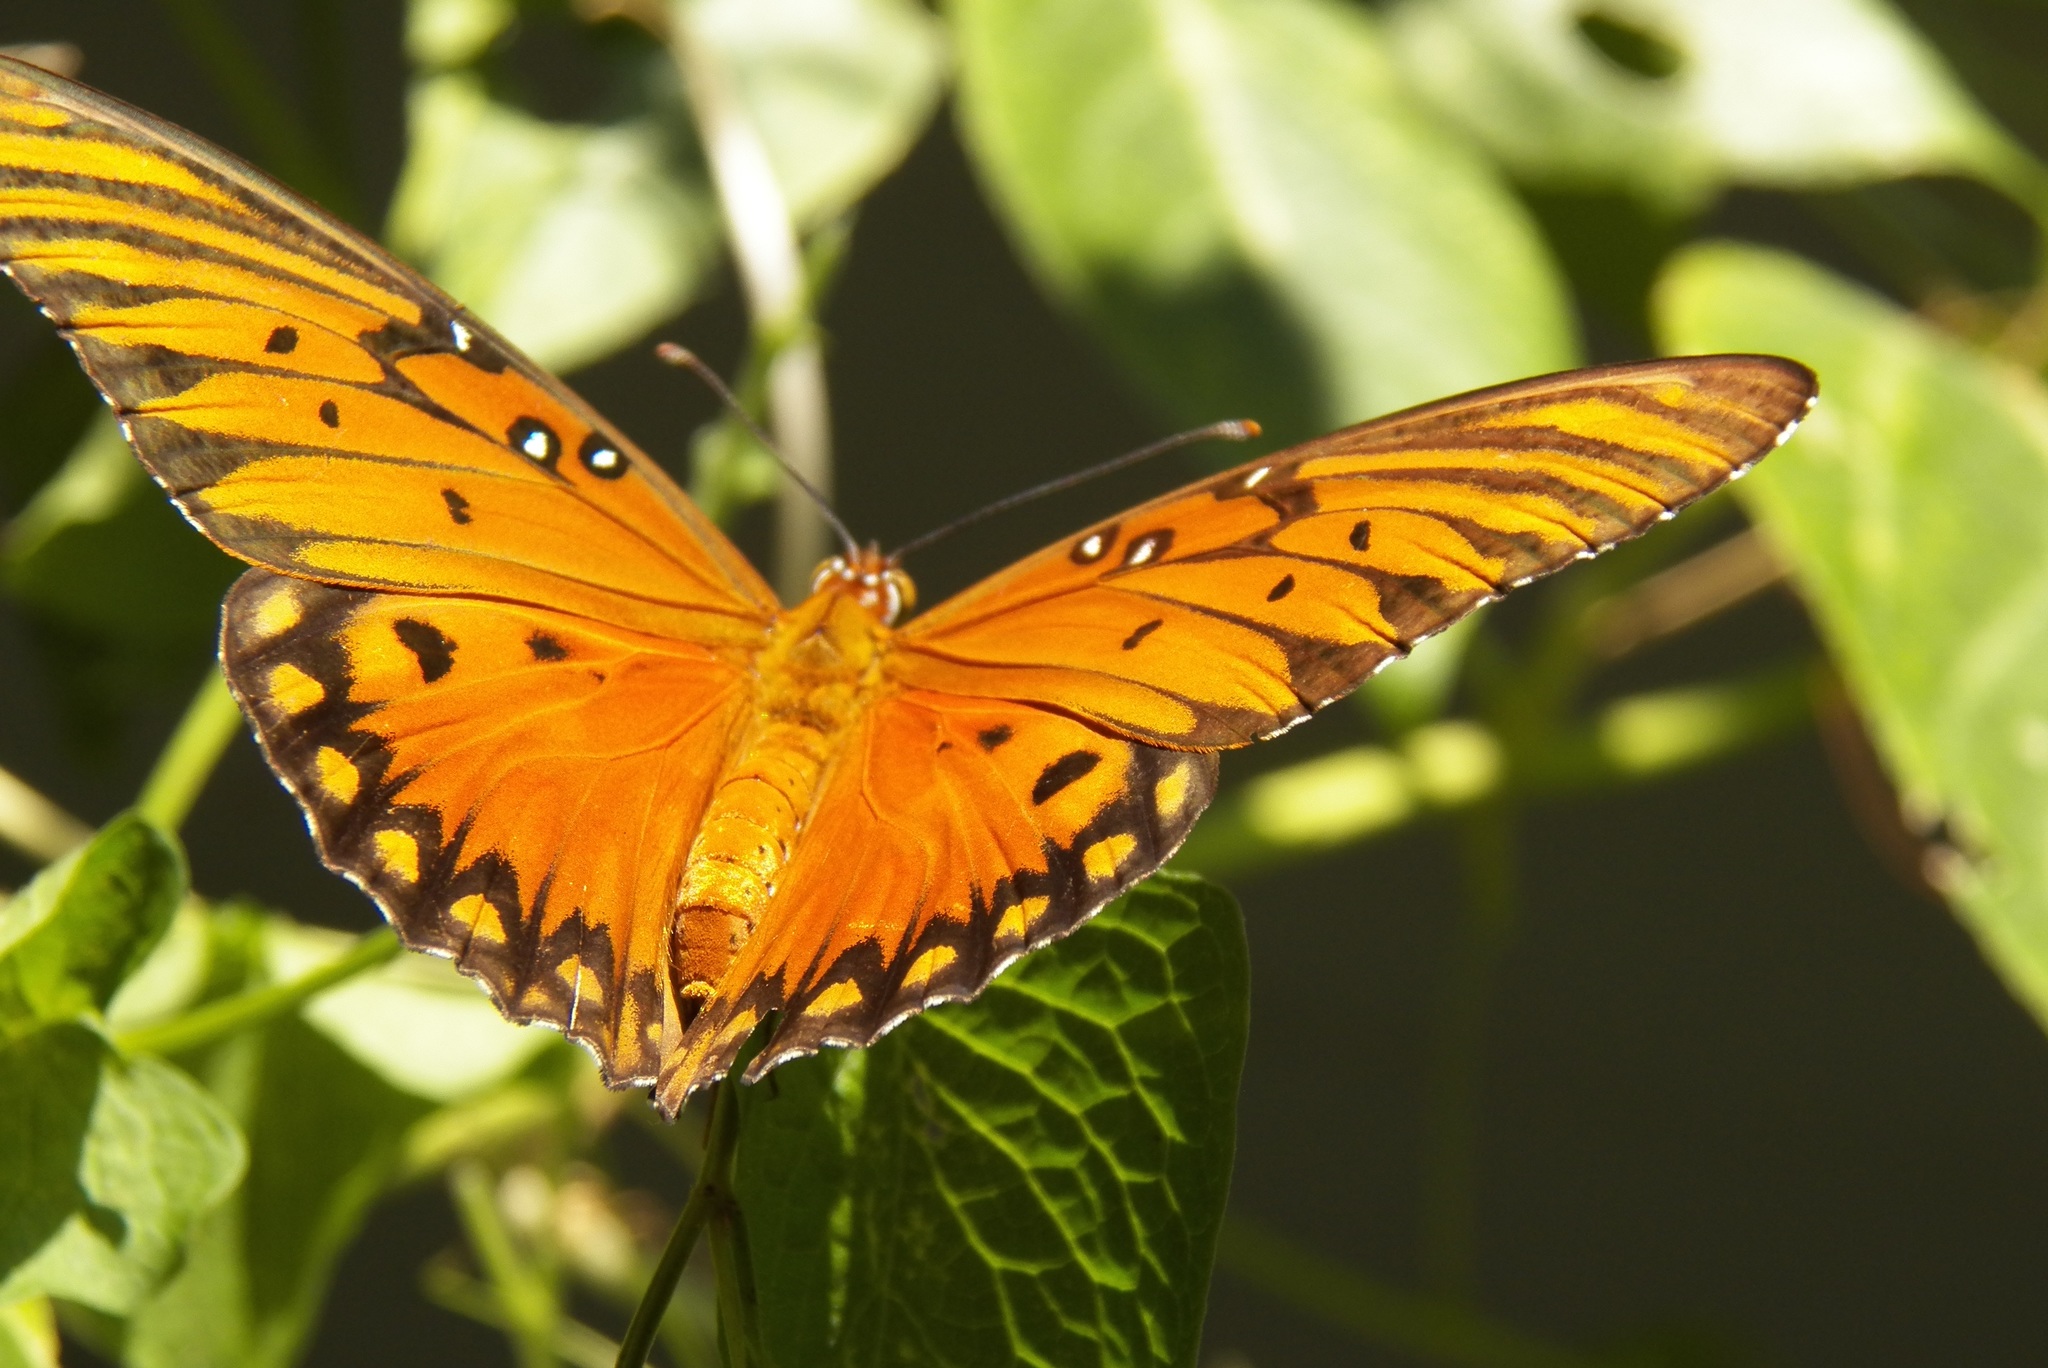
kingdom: Animalia
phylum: Arthropoda
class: Insecta
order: Lepidoptera
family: Nymphalidae
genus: Dione
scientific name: Dione vanillae
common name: Gulf fritillary
